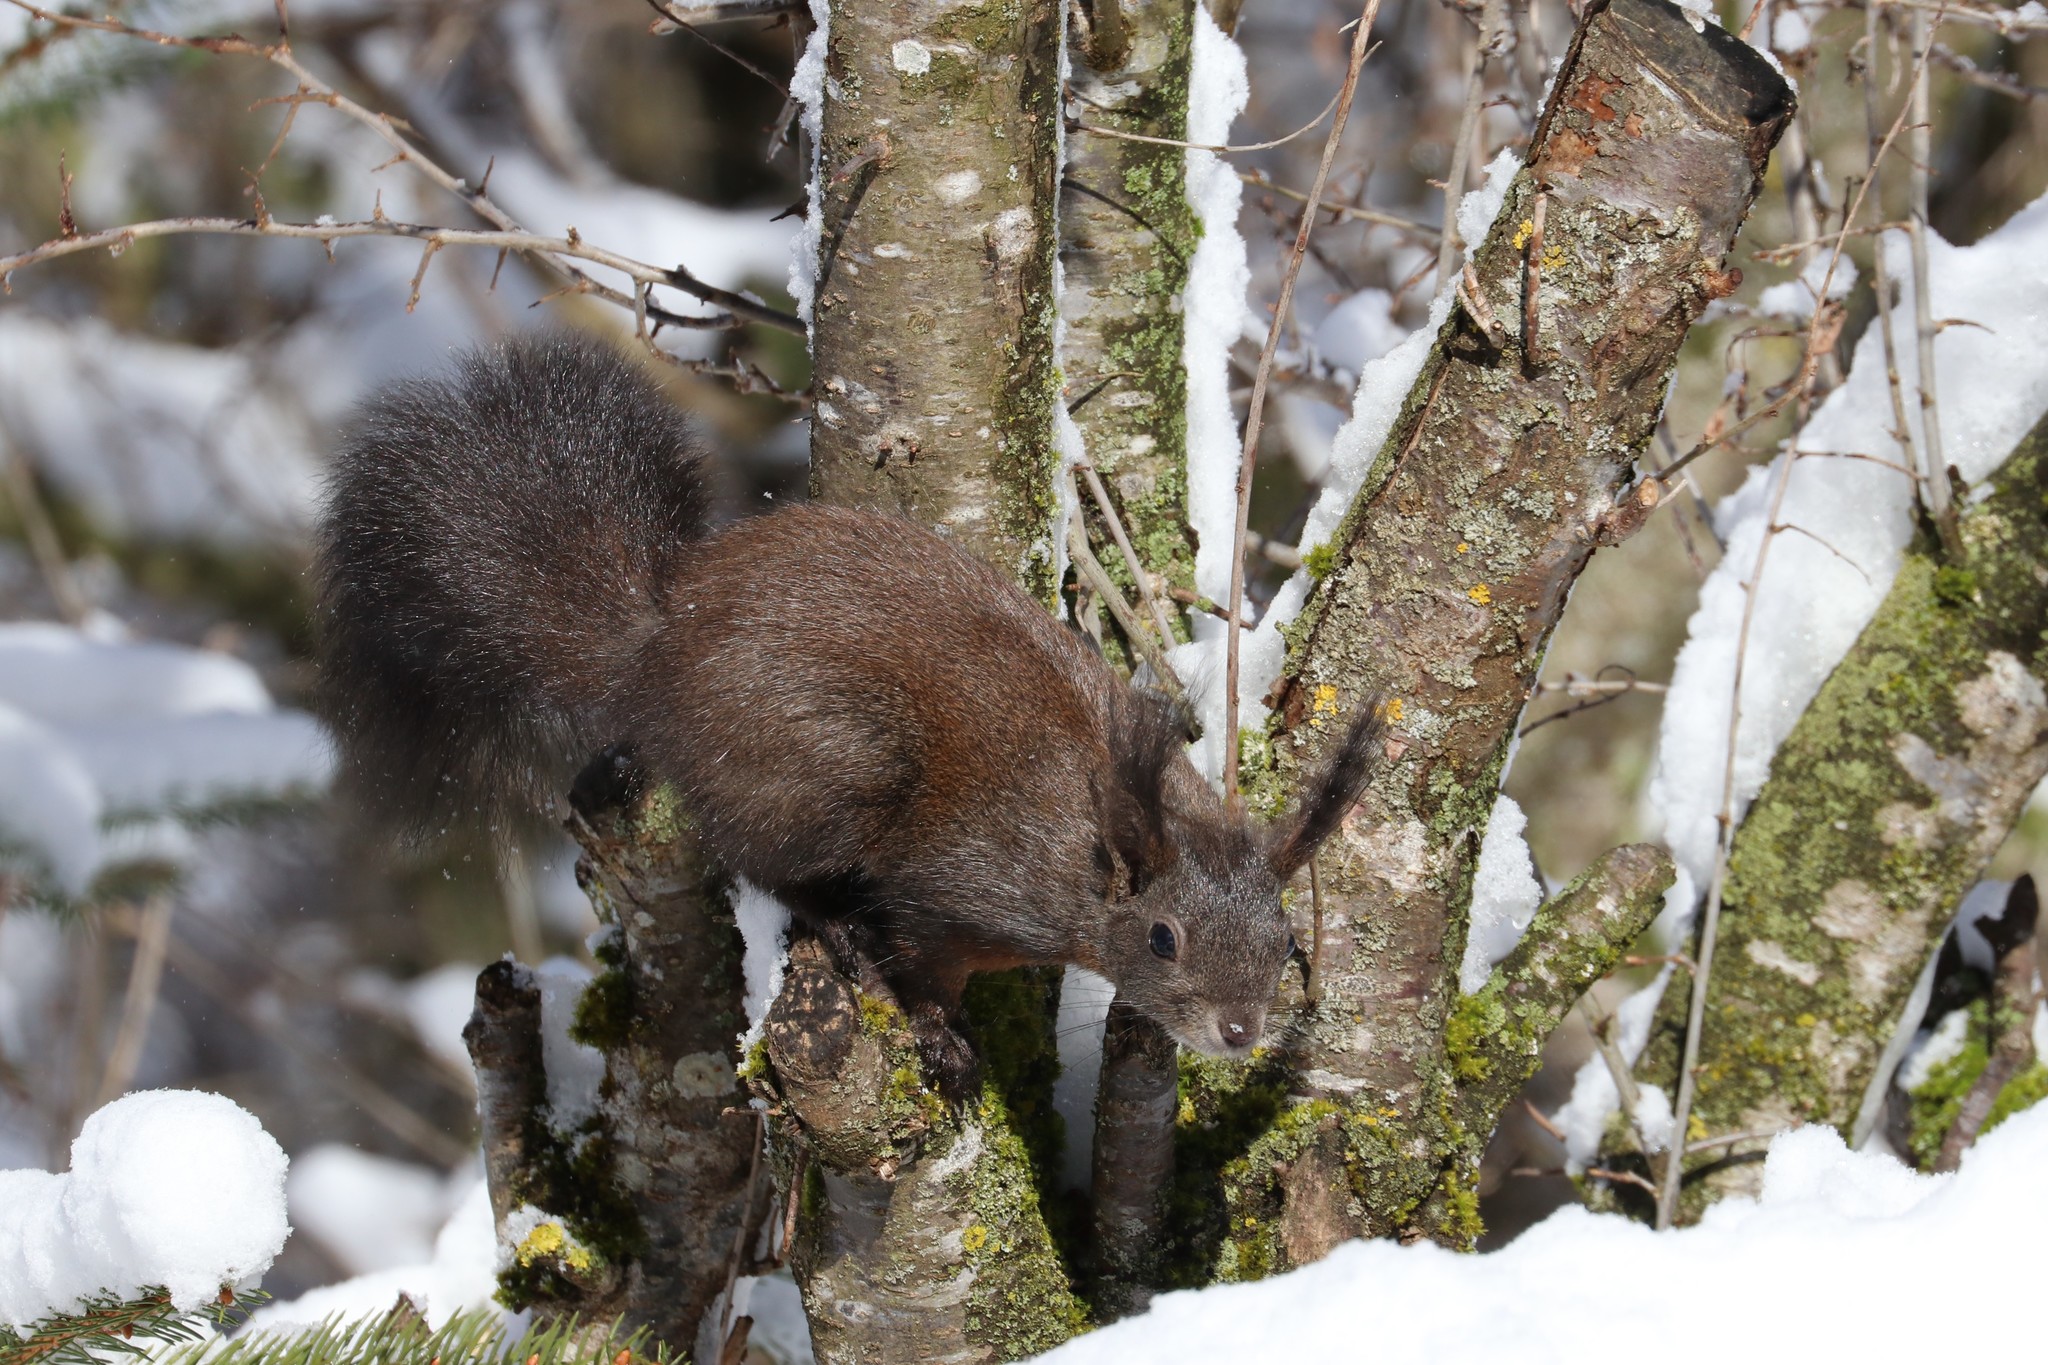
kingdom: Animalia
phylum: Chordata
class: Mammalia
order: Rodentia
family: Sciuridae
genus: Sciurus
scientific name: Sciurus vulgaris
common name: Eurasian red squirrel
